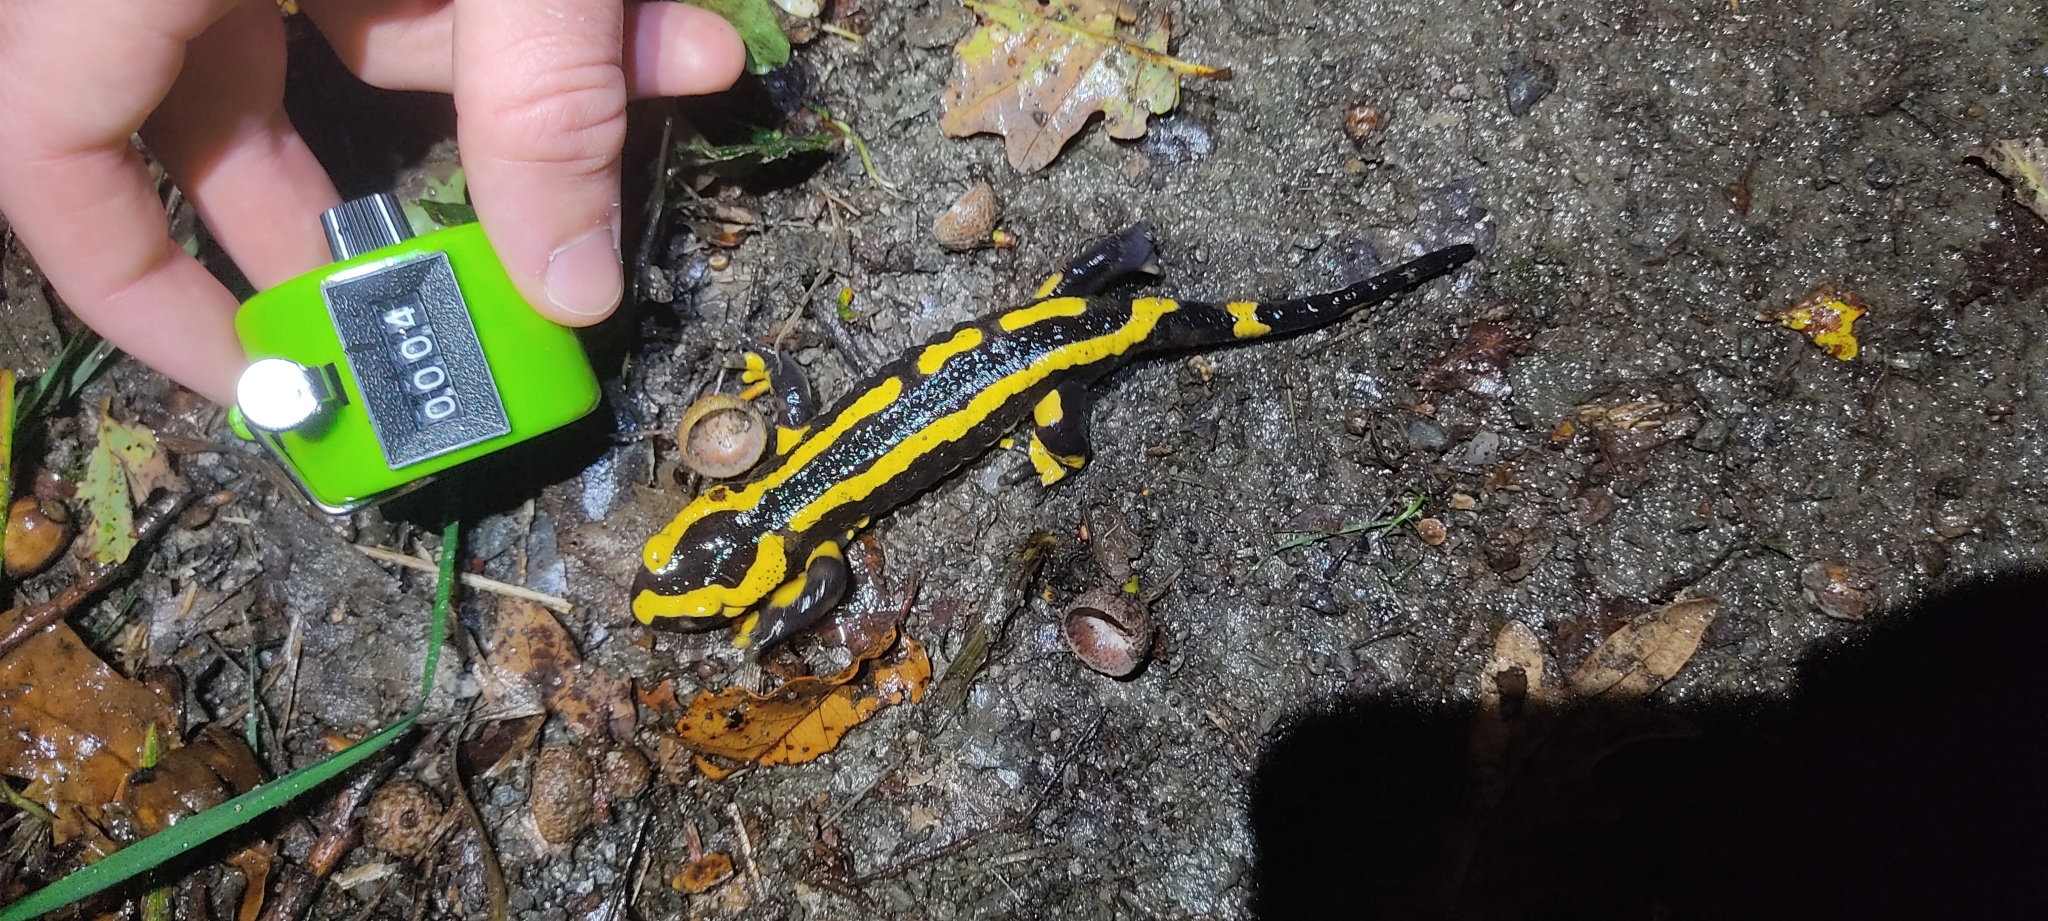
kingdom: Animalia
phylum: Chordata
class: Amphibia
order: Caudata
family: Salamandridae
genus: Salamandra
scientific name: Salamandra salamandra
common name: Fire salamander
